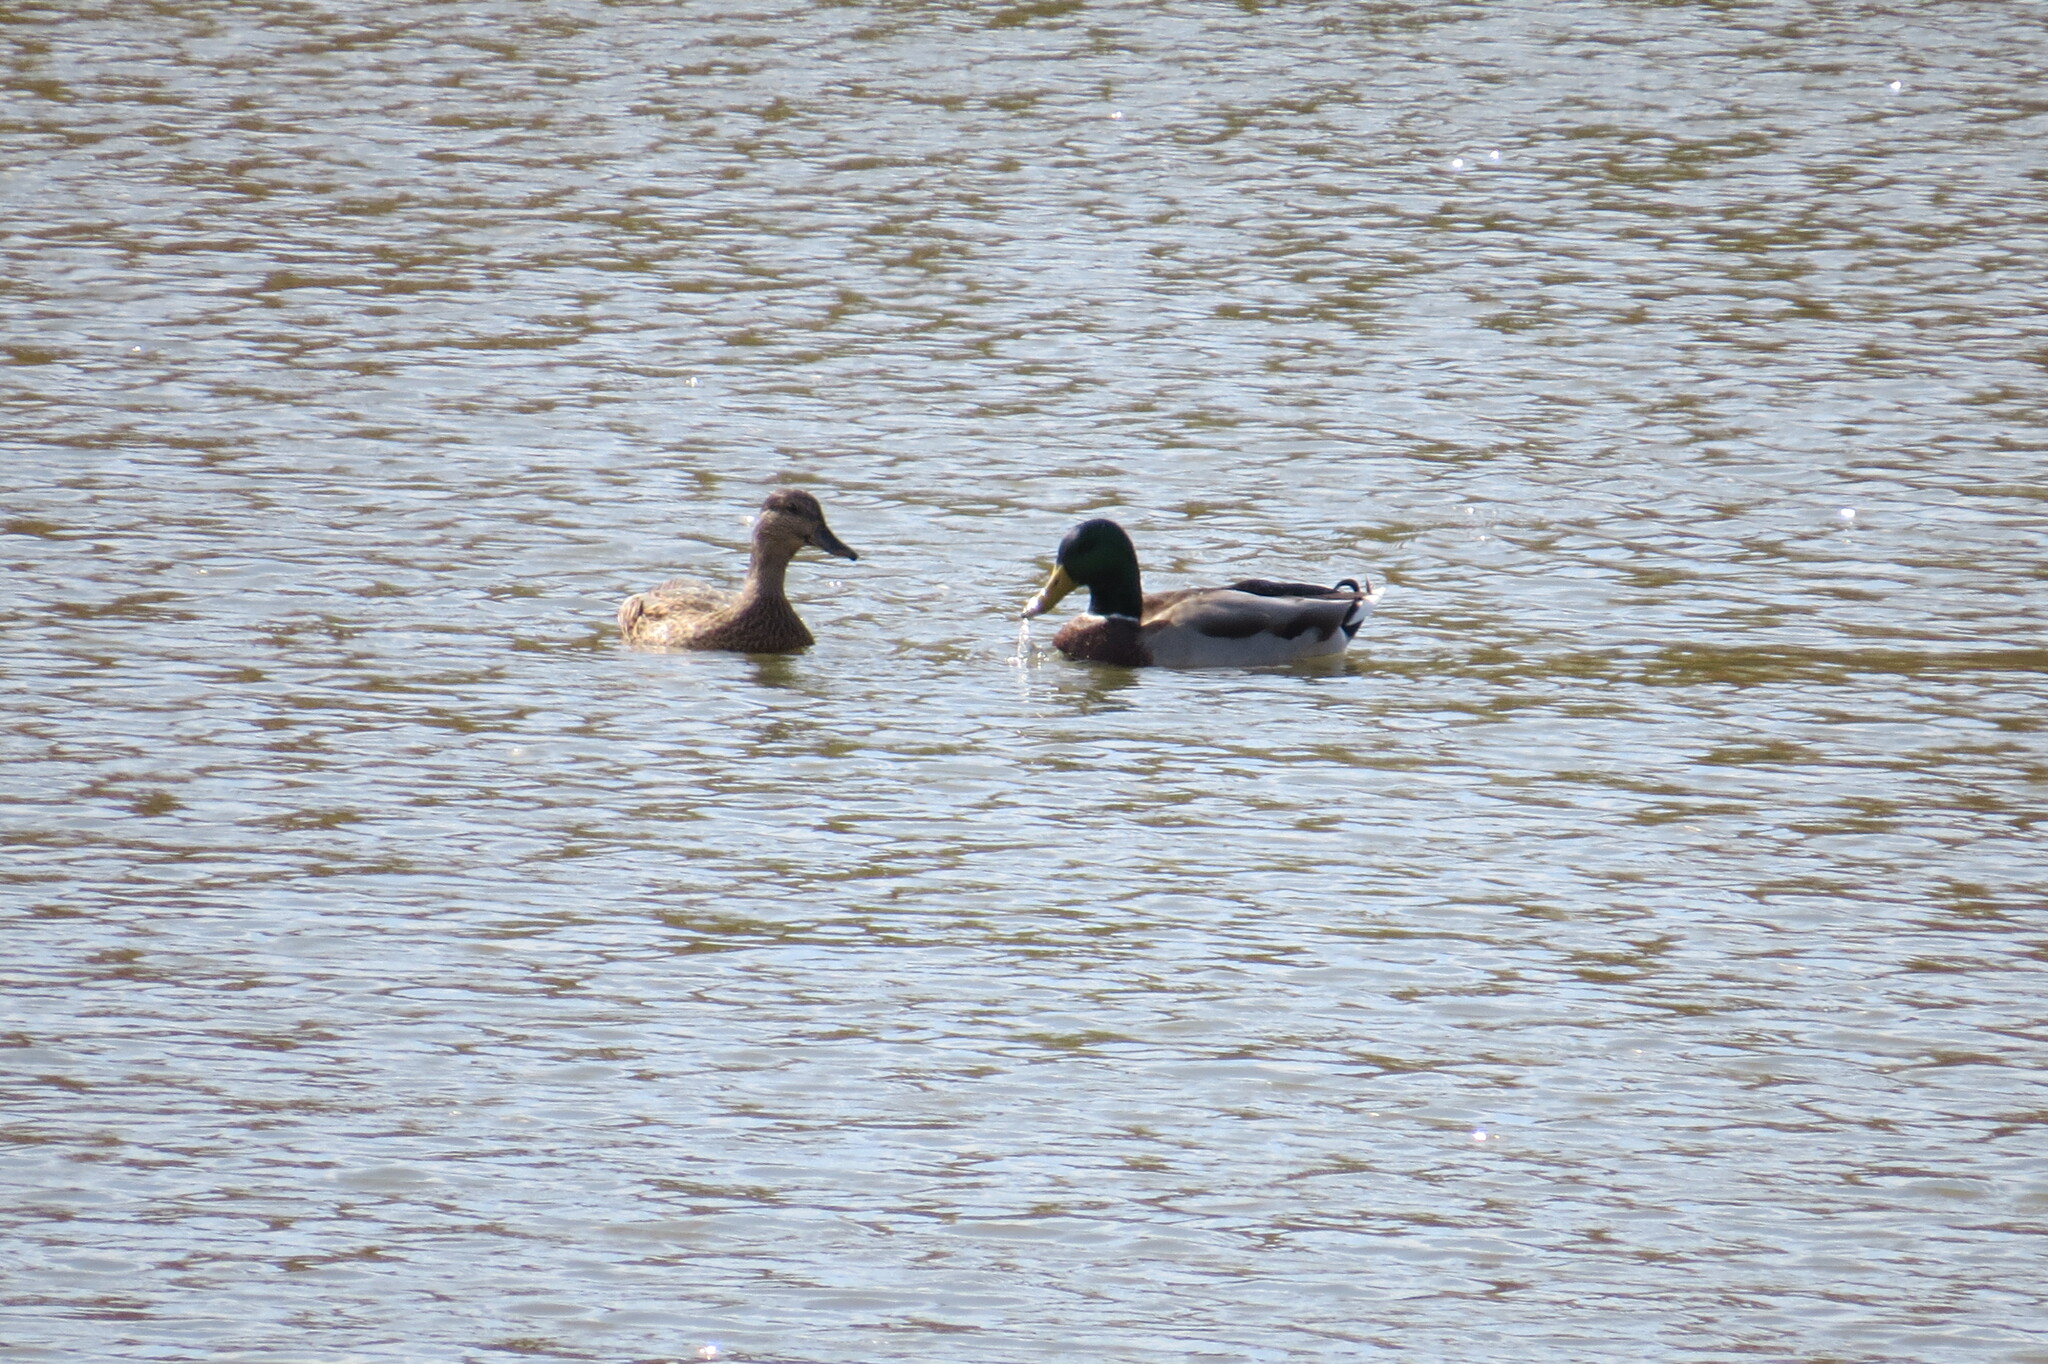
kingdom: Animalia
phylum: Chordata
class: Aves
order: Anseriformes
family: Anatidae
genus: Anas
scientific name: Anas platyrhynchos
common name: Mallard
